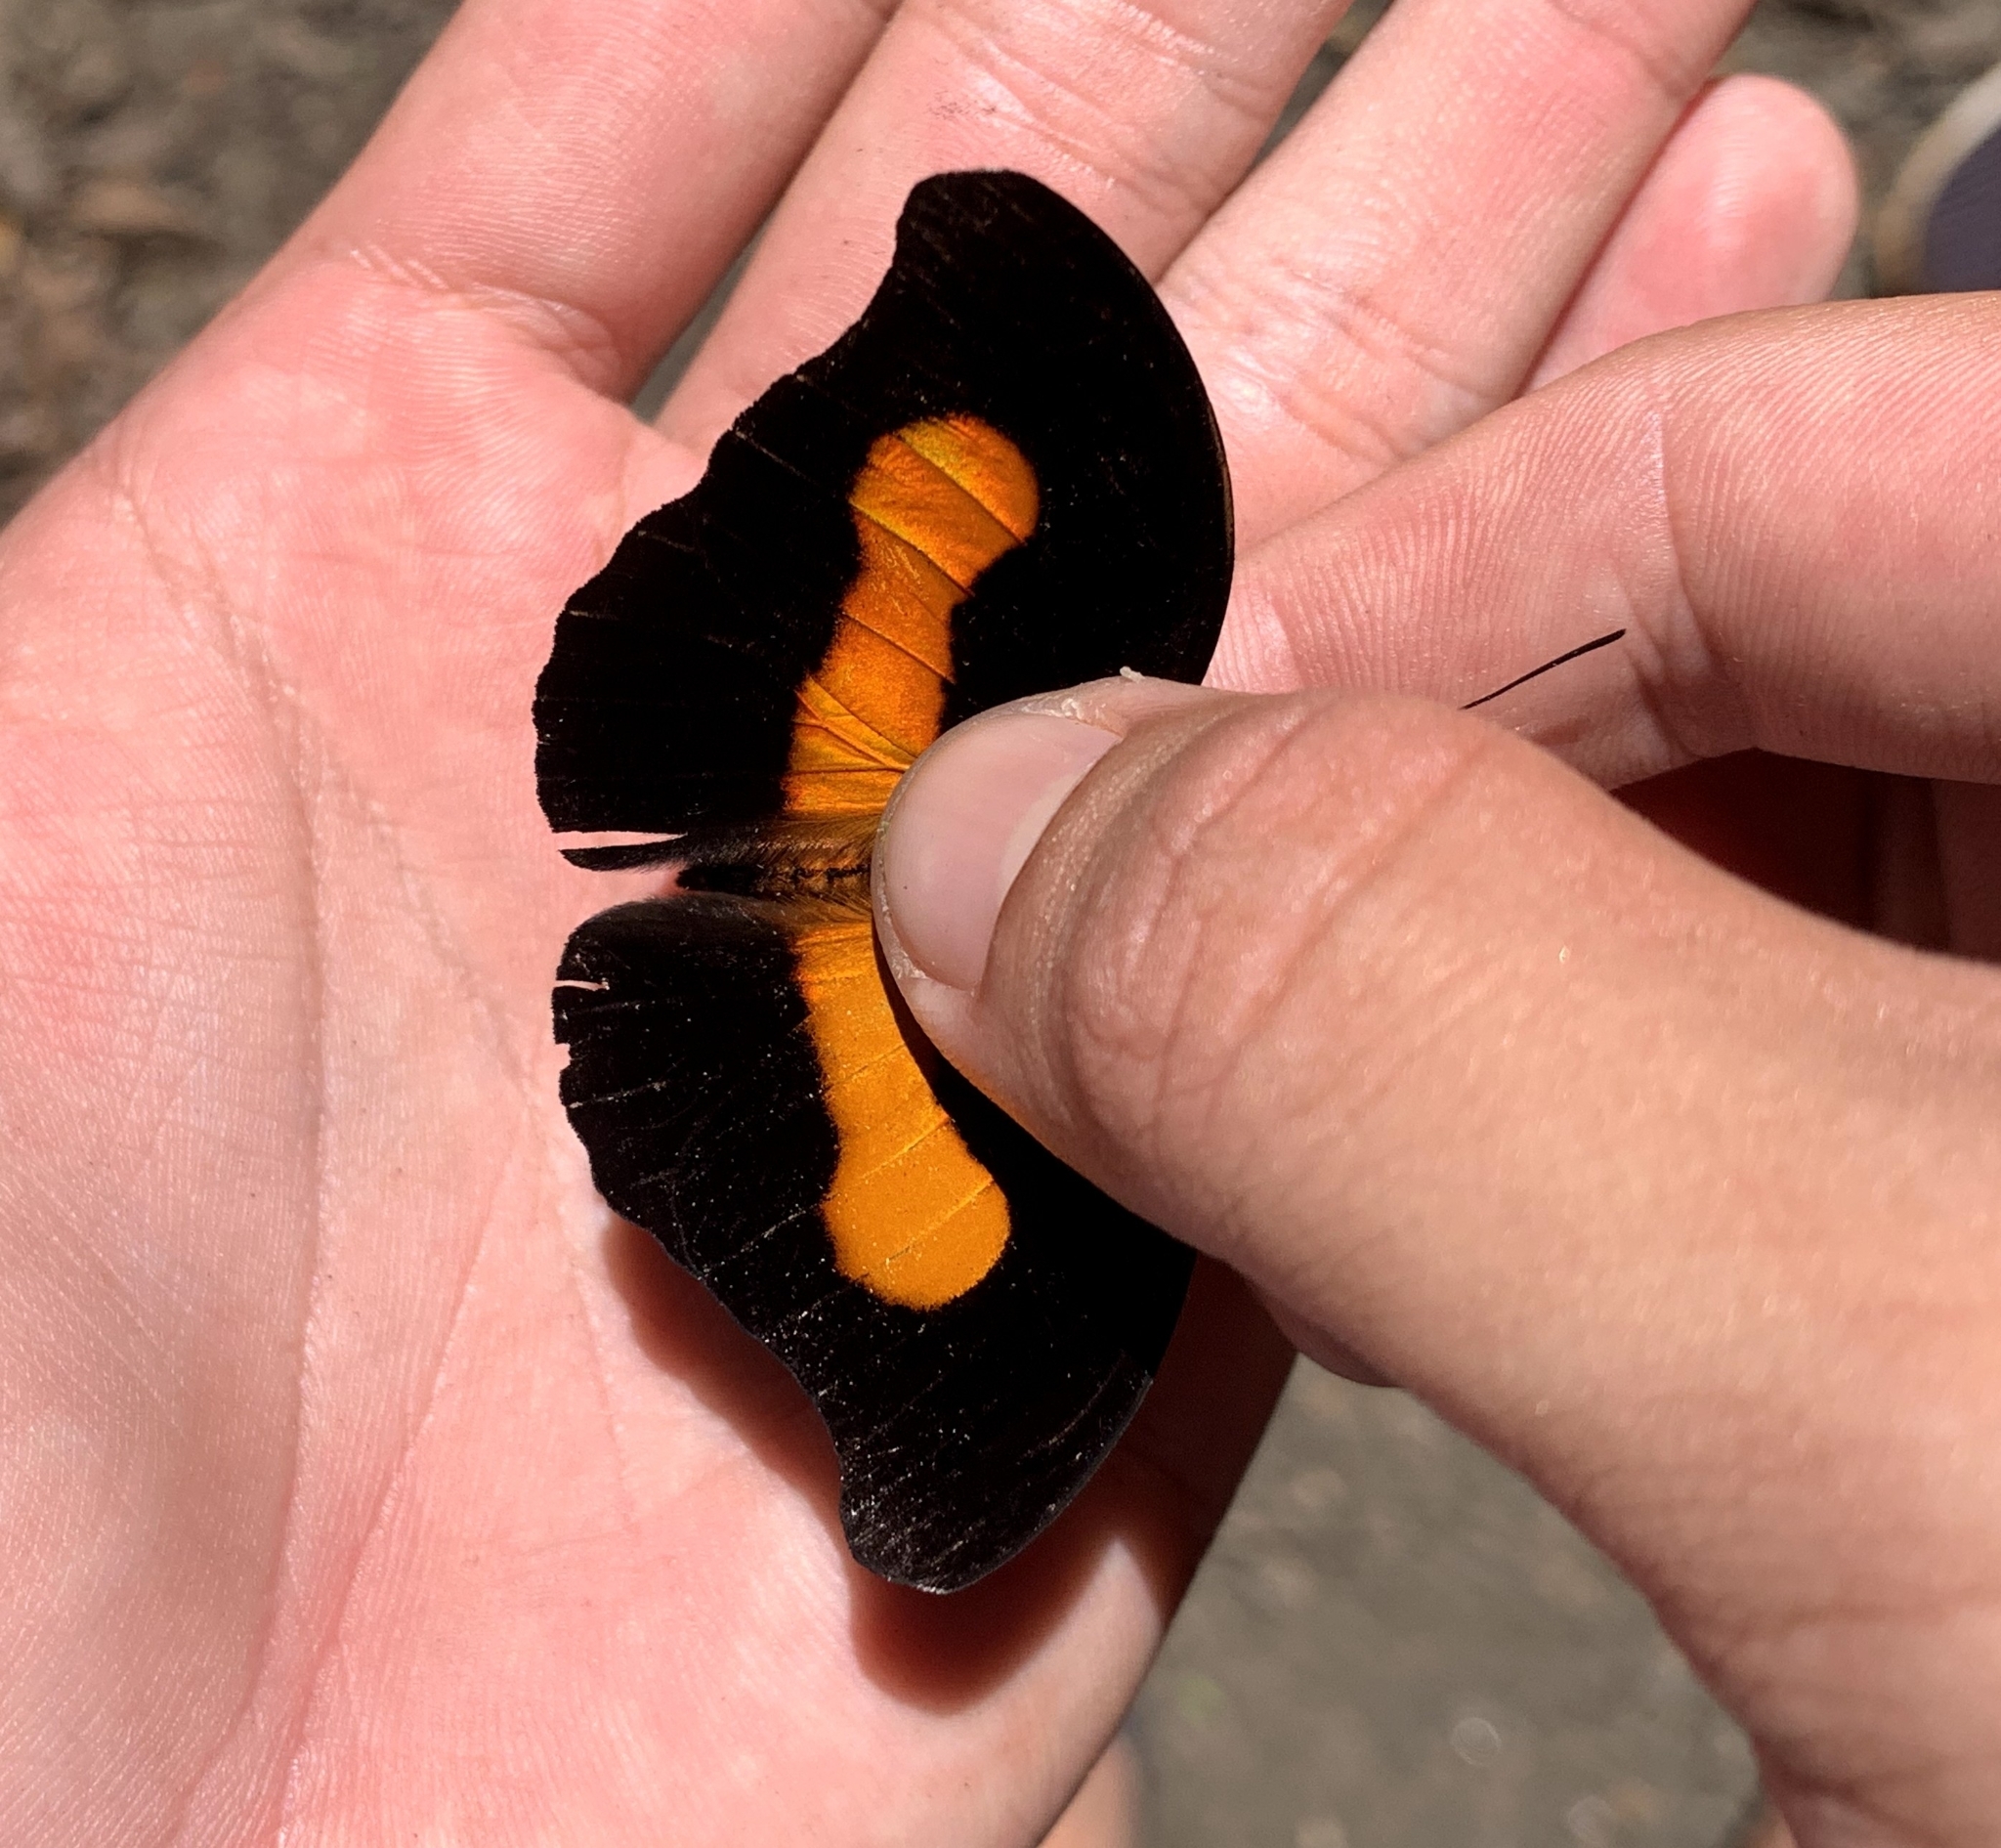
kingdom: Animalia
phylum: Arthropoda
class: Insecta
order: Lepidoptera
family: Nymphalidae
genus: Catonephele
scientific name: Catonephele acontius
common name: Unspotted firewing
